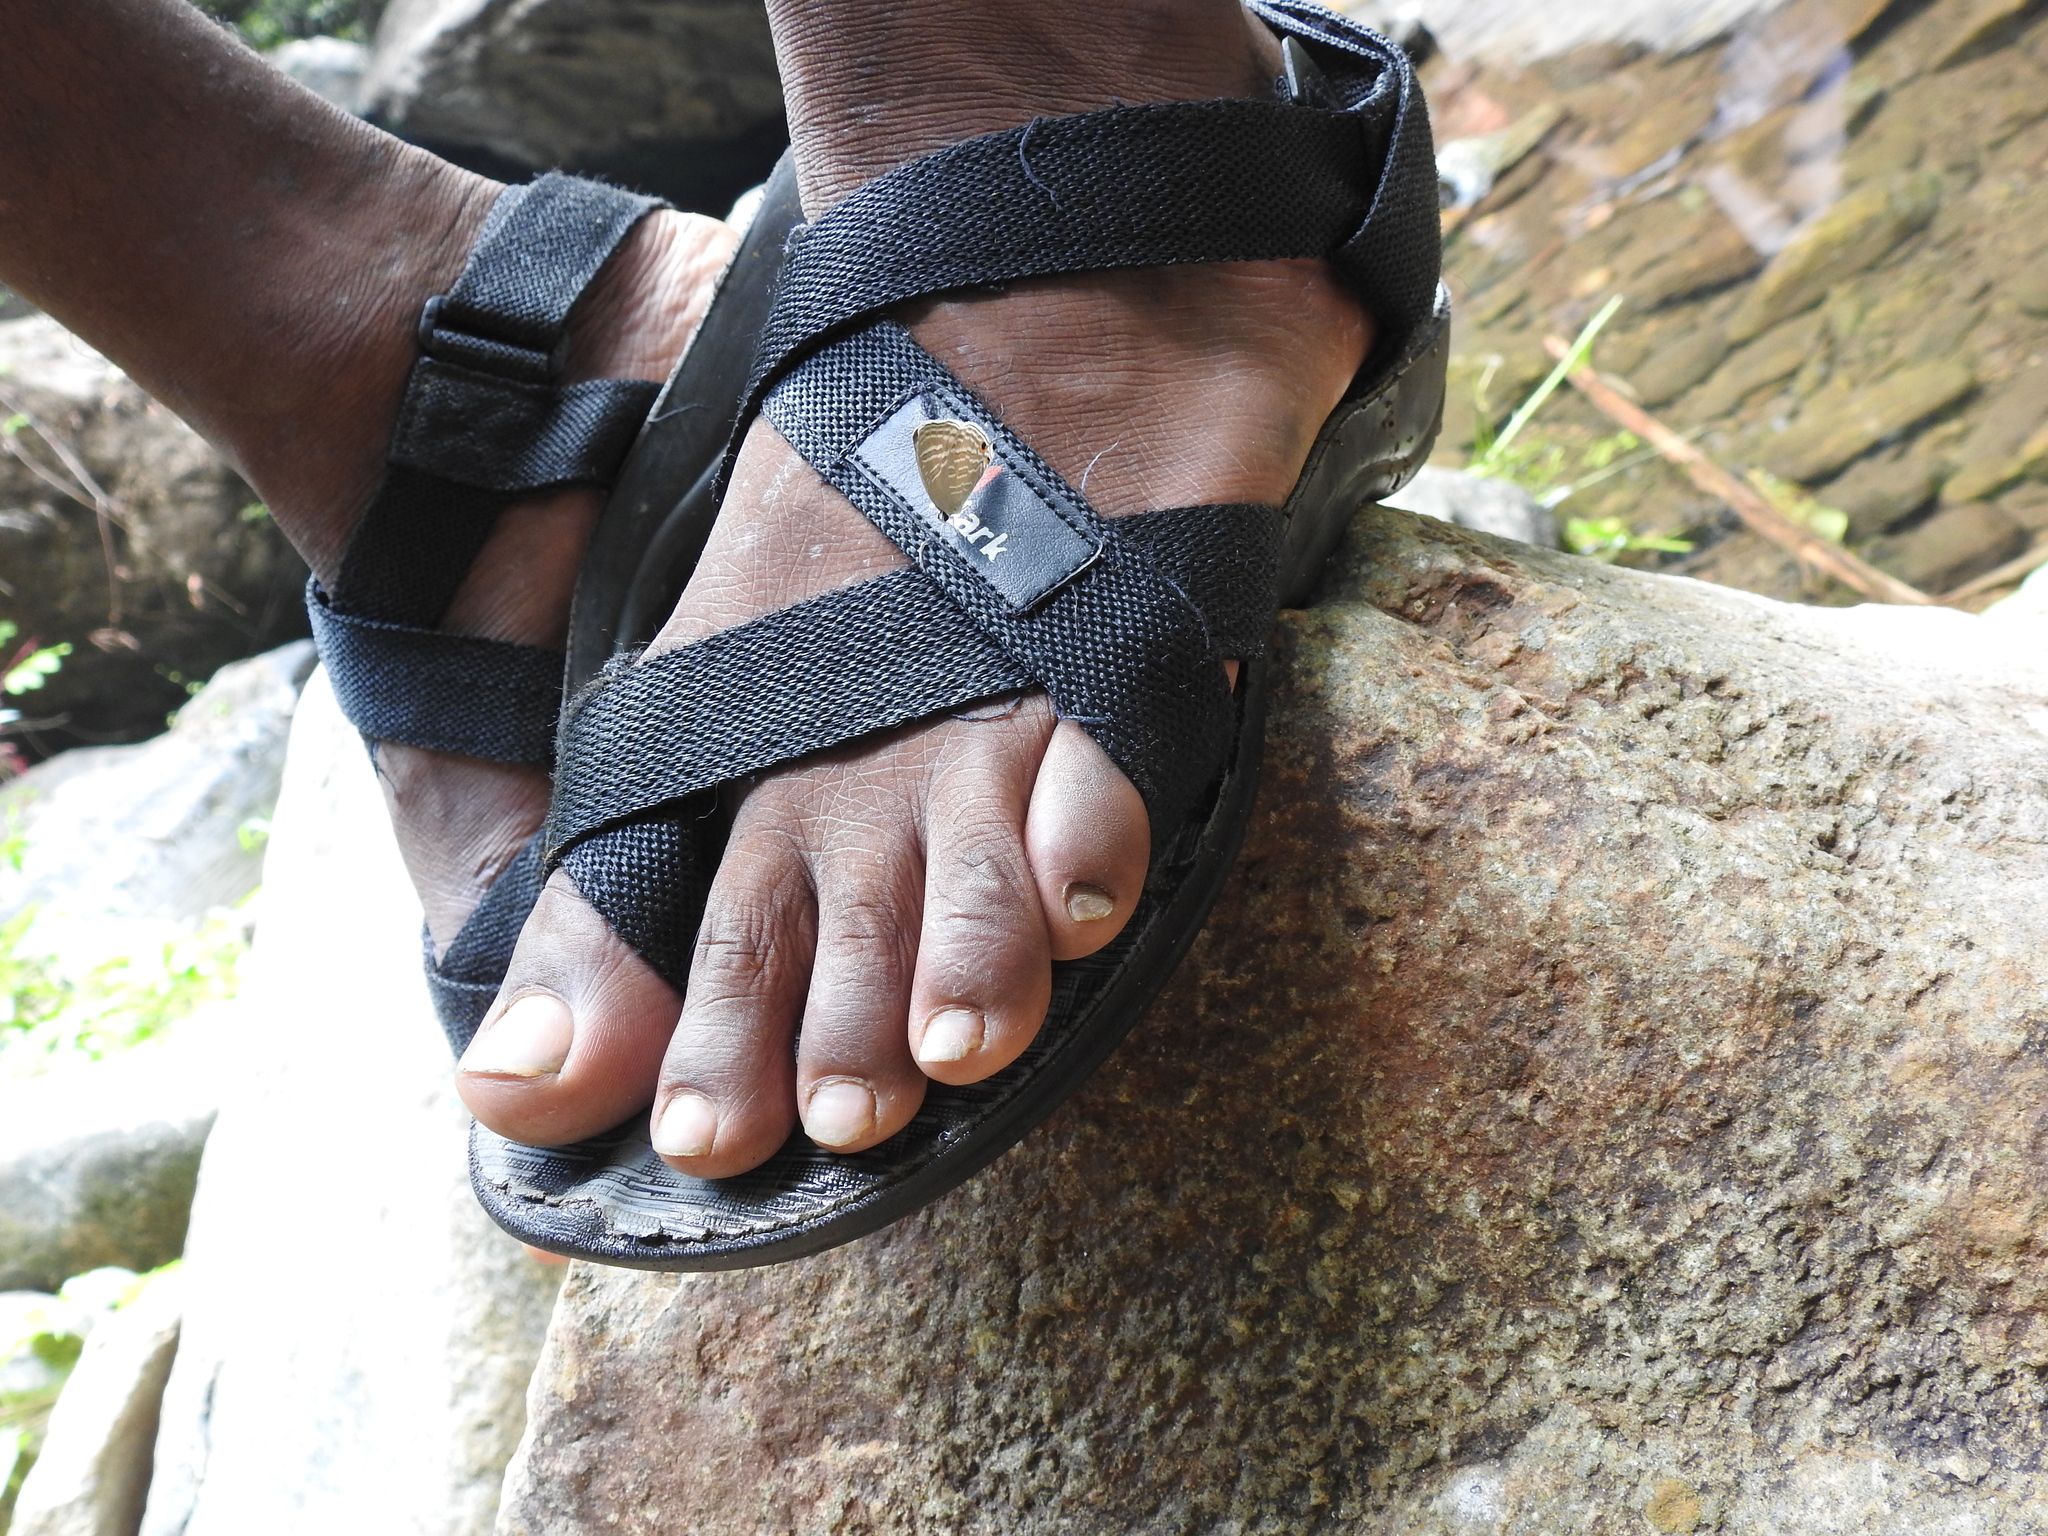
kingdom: Animalia
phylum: Arthropoda
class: Insecta
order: Lepidoptera
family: Lycaenidae
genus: Jamides
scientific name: Jamides celeno
